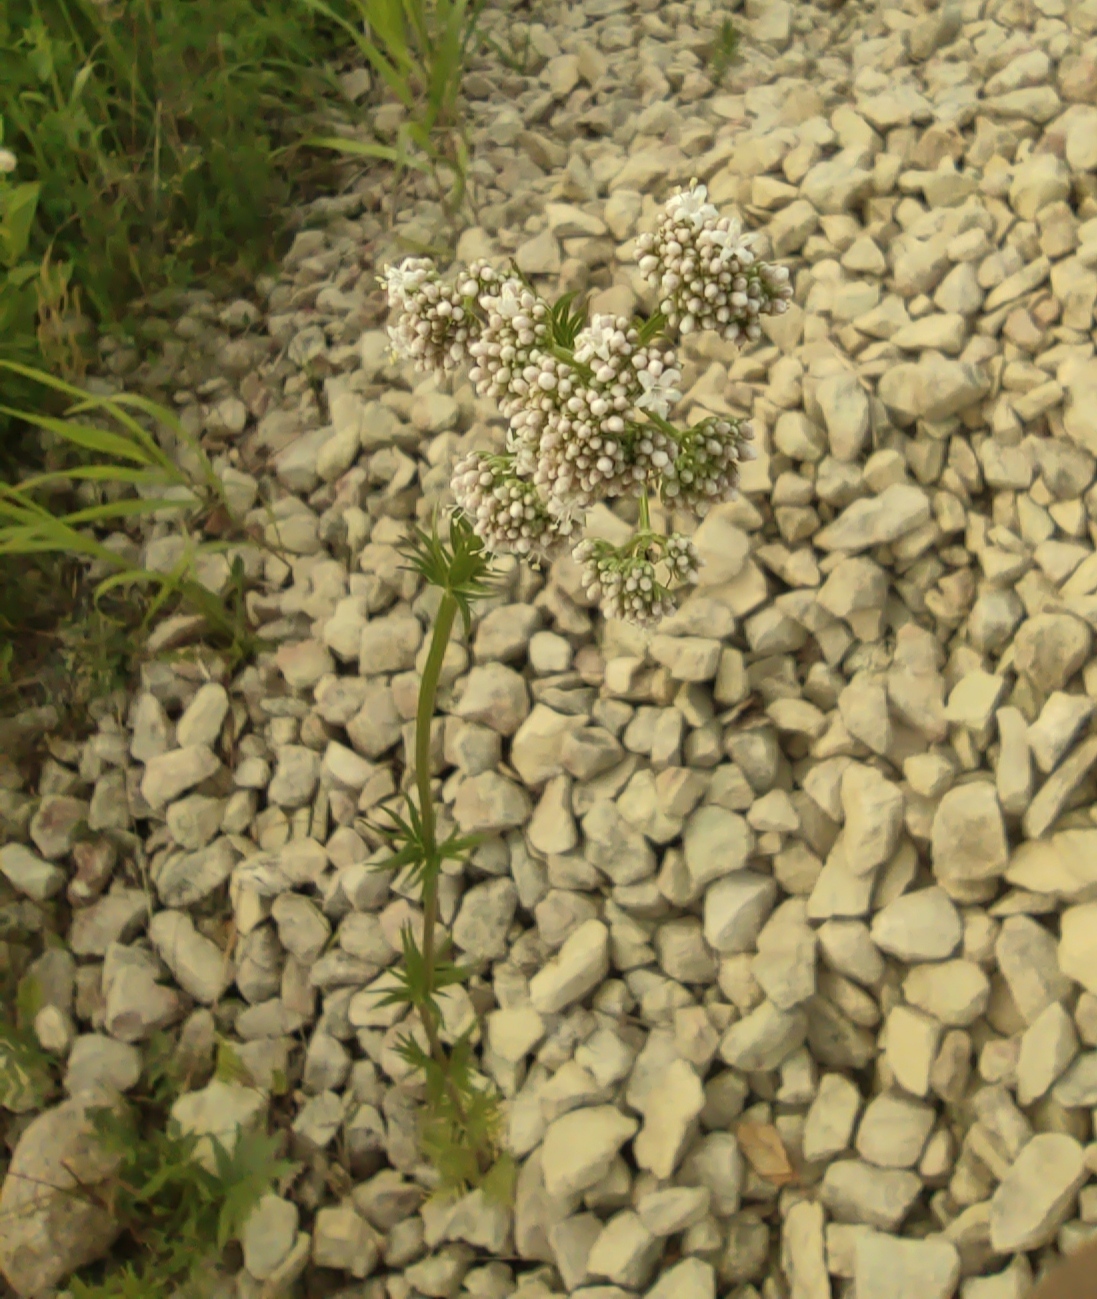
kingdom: Plantae
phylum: Tracheophyta
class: Magnoliopsida
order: Dipsacales
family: Caprifoliaceae
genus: Valeriana
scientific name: Valeriana officinalis
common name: Common valerian
